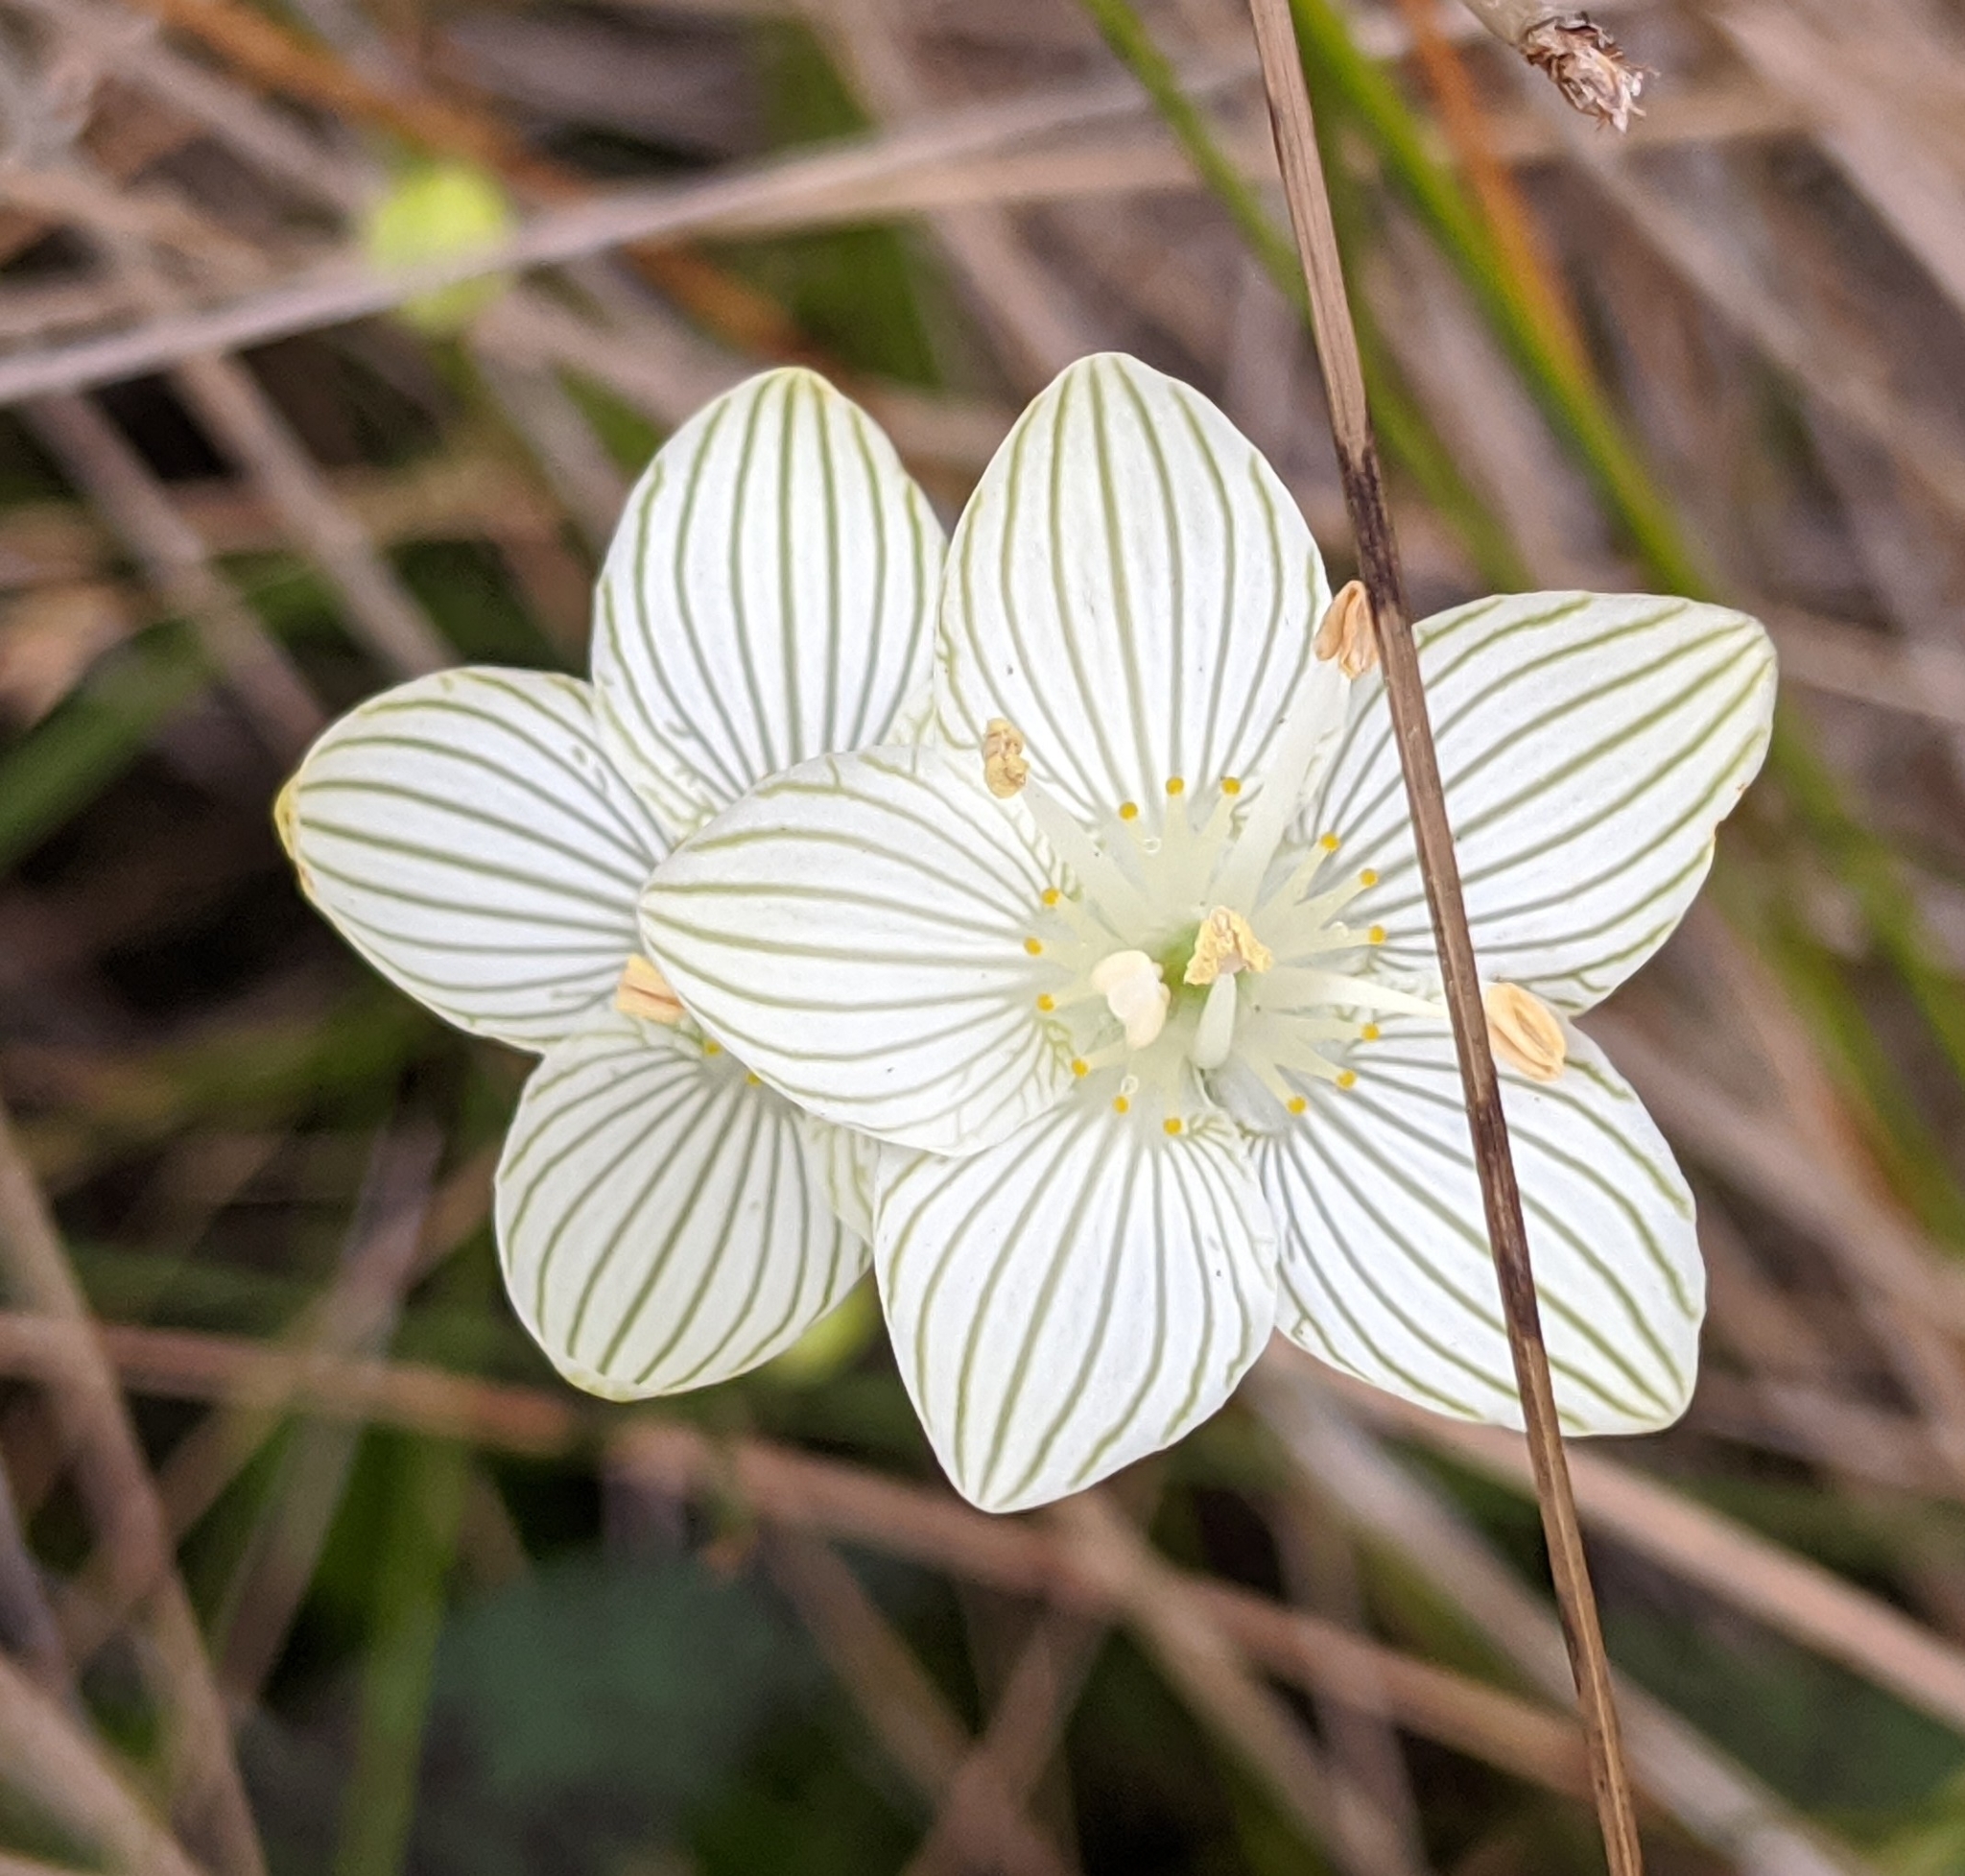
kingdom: Plantae
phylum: Tracheophyta
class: Magnoliopsida
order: Celastrales
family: Parnassiaceae
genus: Parnassia
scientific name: Parnassia glauca
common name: American grass-of-parnassus
